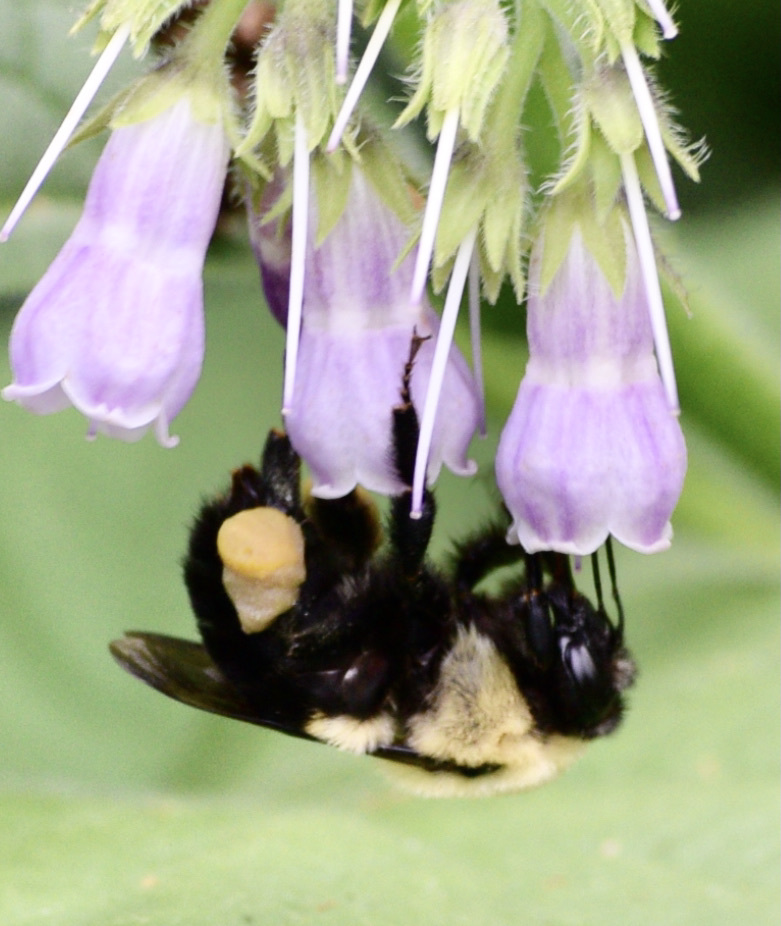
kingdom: Animalia
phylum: Arthropoda
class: Insecta
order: Hymenoptera
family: Apidae
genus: Bombus
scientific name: Bombus griseocollis
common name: Brown-belted bumble bee
